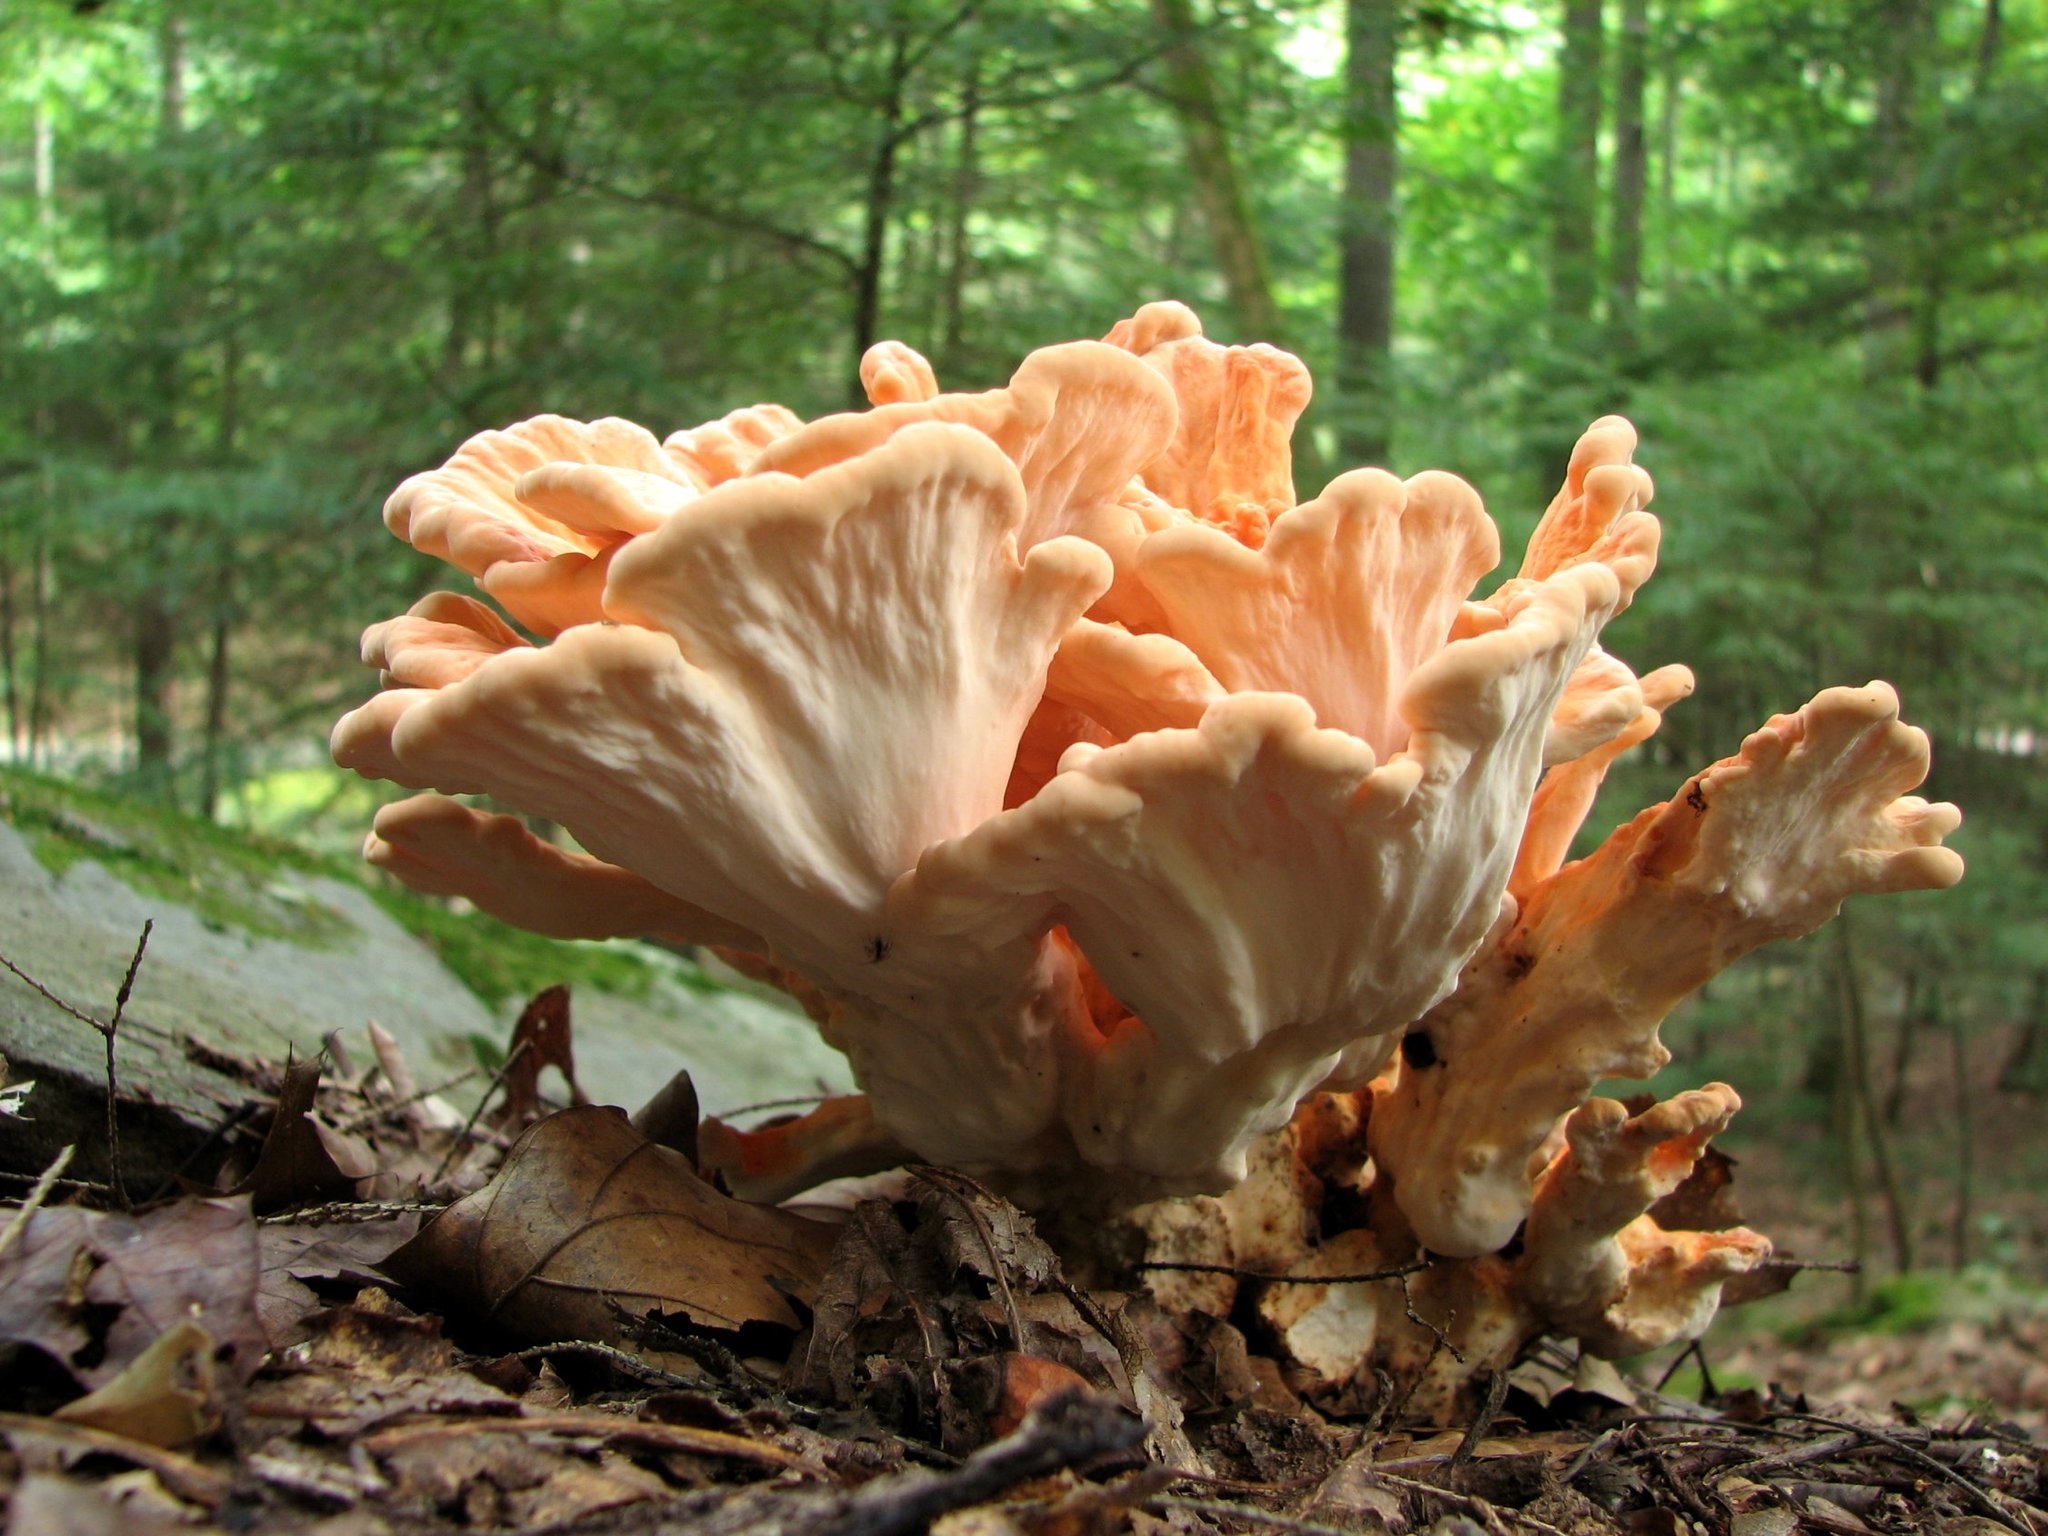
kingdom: Fungi
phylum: Basidiomycota
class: Agaricomycetes
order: Polyporales
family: Laetiporaceae
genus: Laetiporus
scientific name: Laetiporus sulphureus
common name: Chicken of the woods
